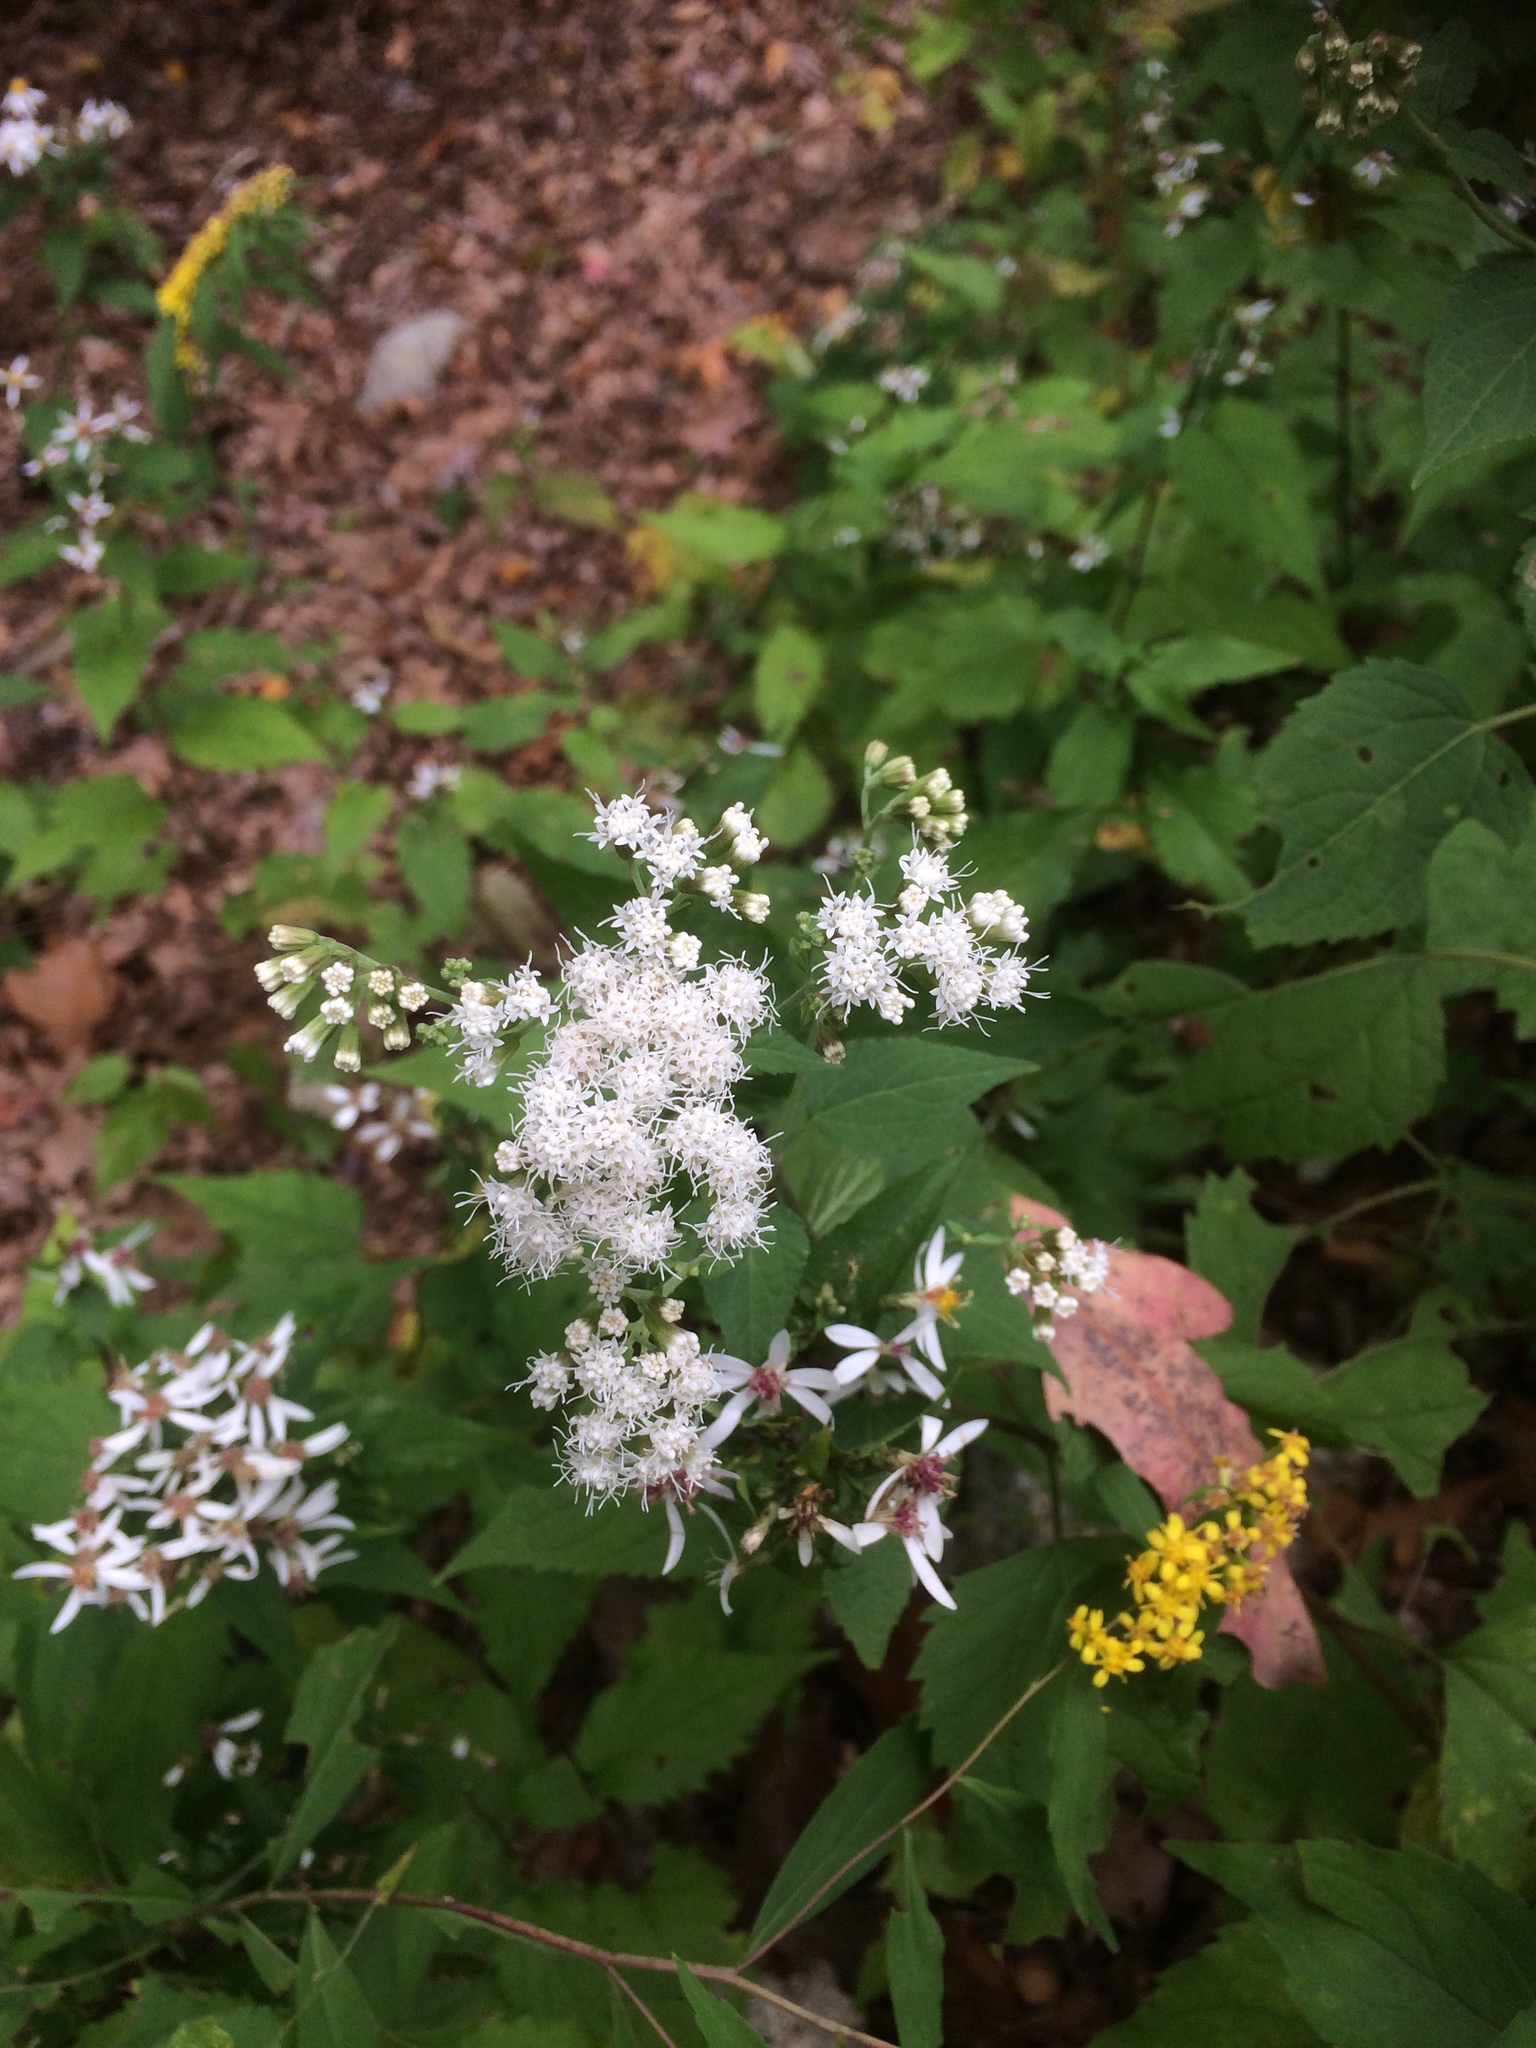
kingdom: Plantae
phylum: Tracheophyta
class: Magnoliopsida
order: Asterales
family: Asteraceae
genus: Ageratina
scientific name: Ageratina altissima
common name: White snakeroot
